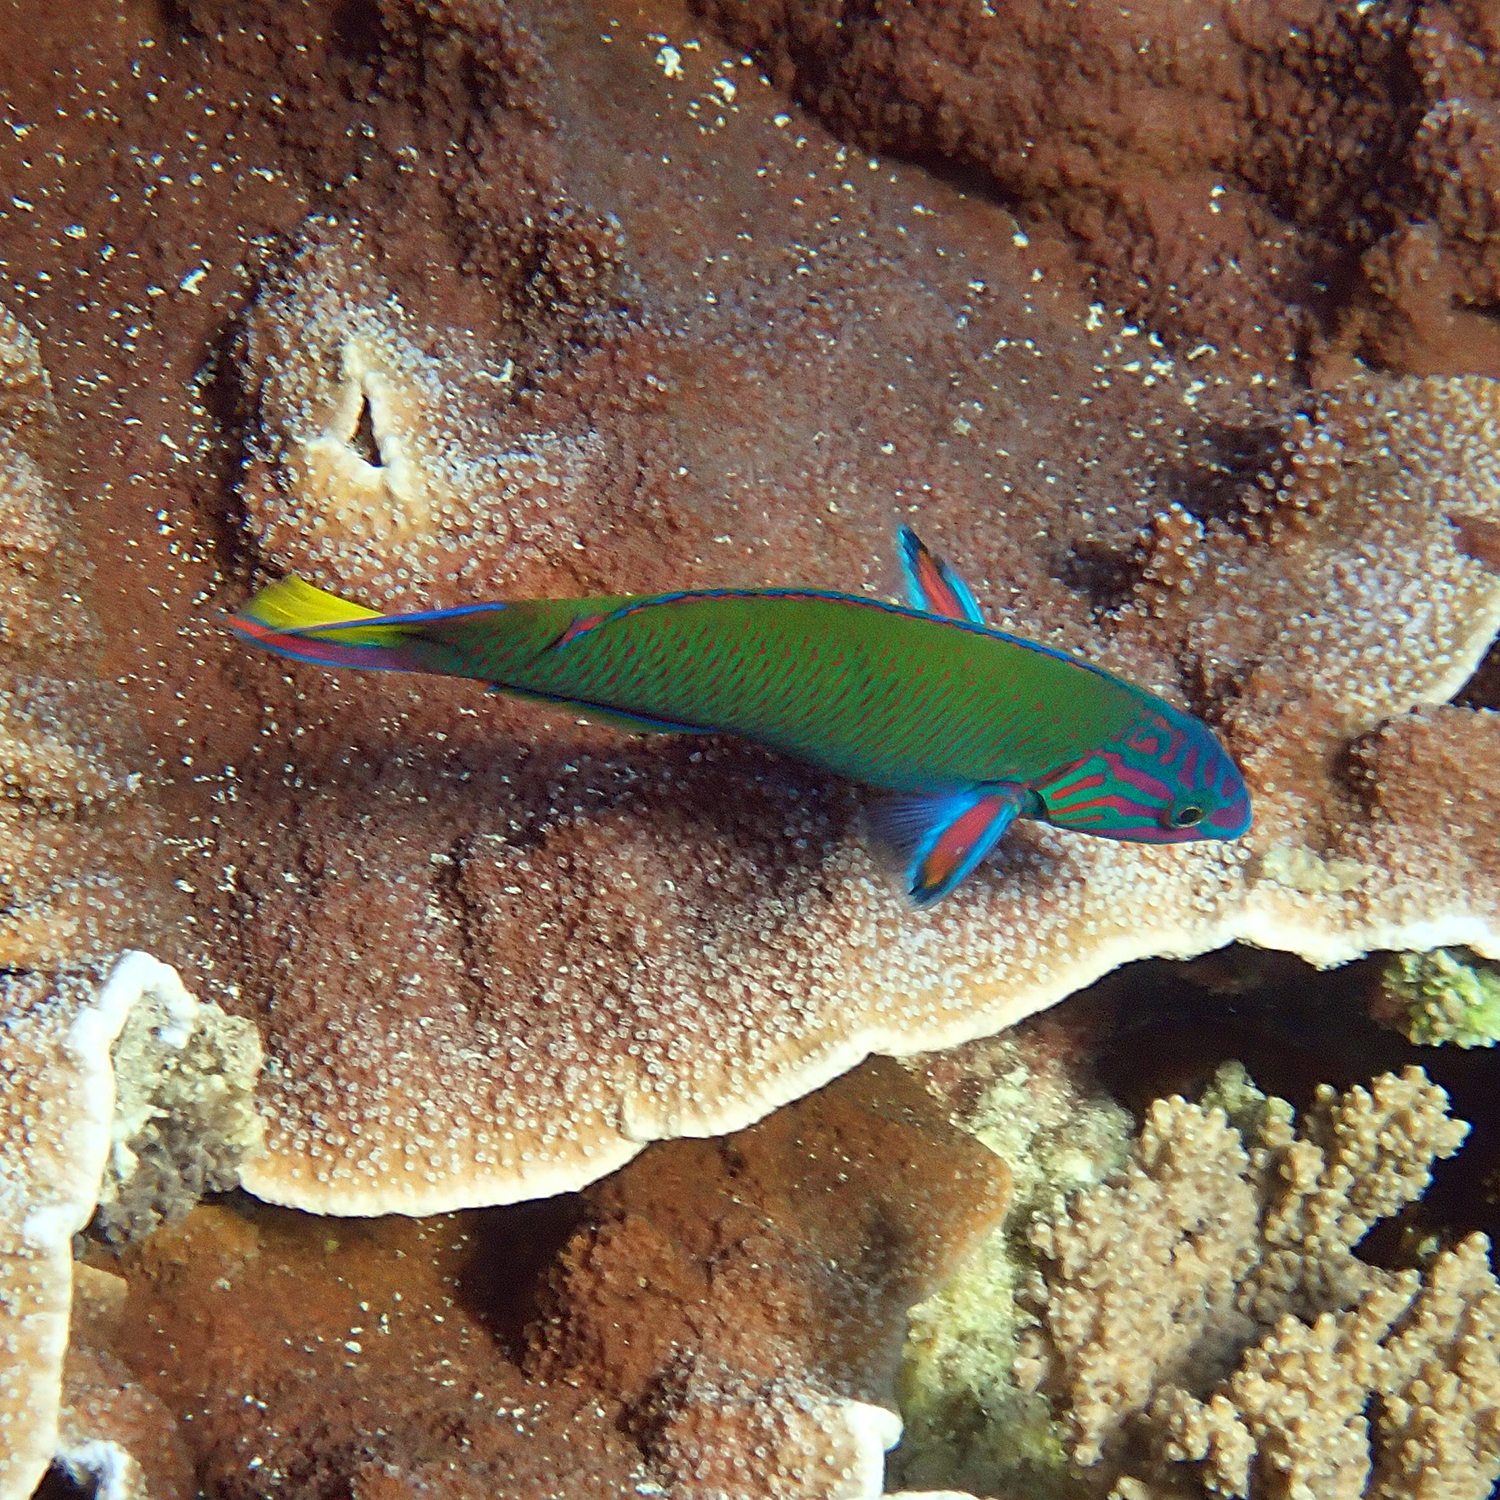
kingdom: Animalia
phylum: Chordata
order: Perciformes
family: Labridae
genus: Thalassoma
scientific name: Thalassoma lunare
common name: Blue wrasse
